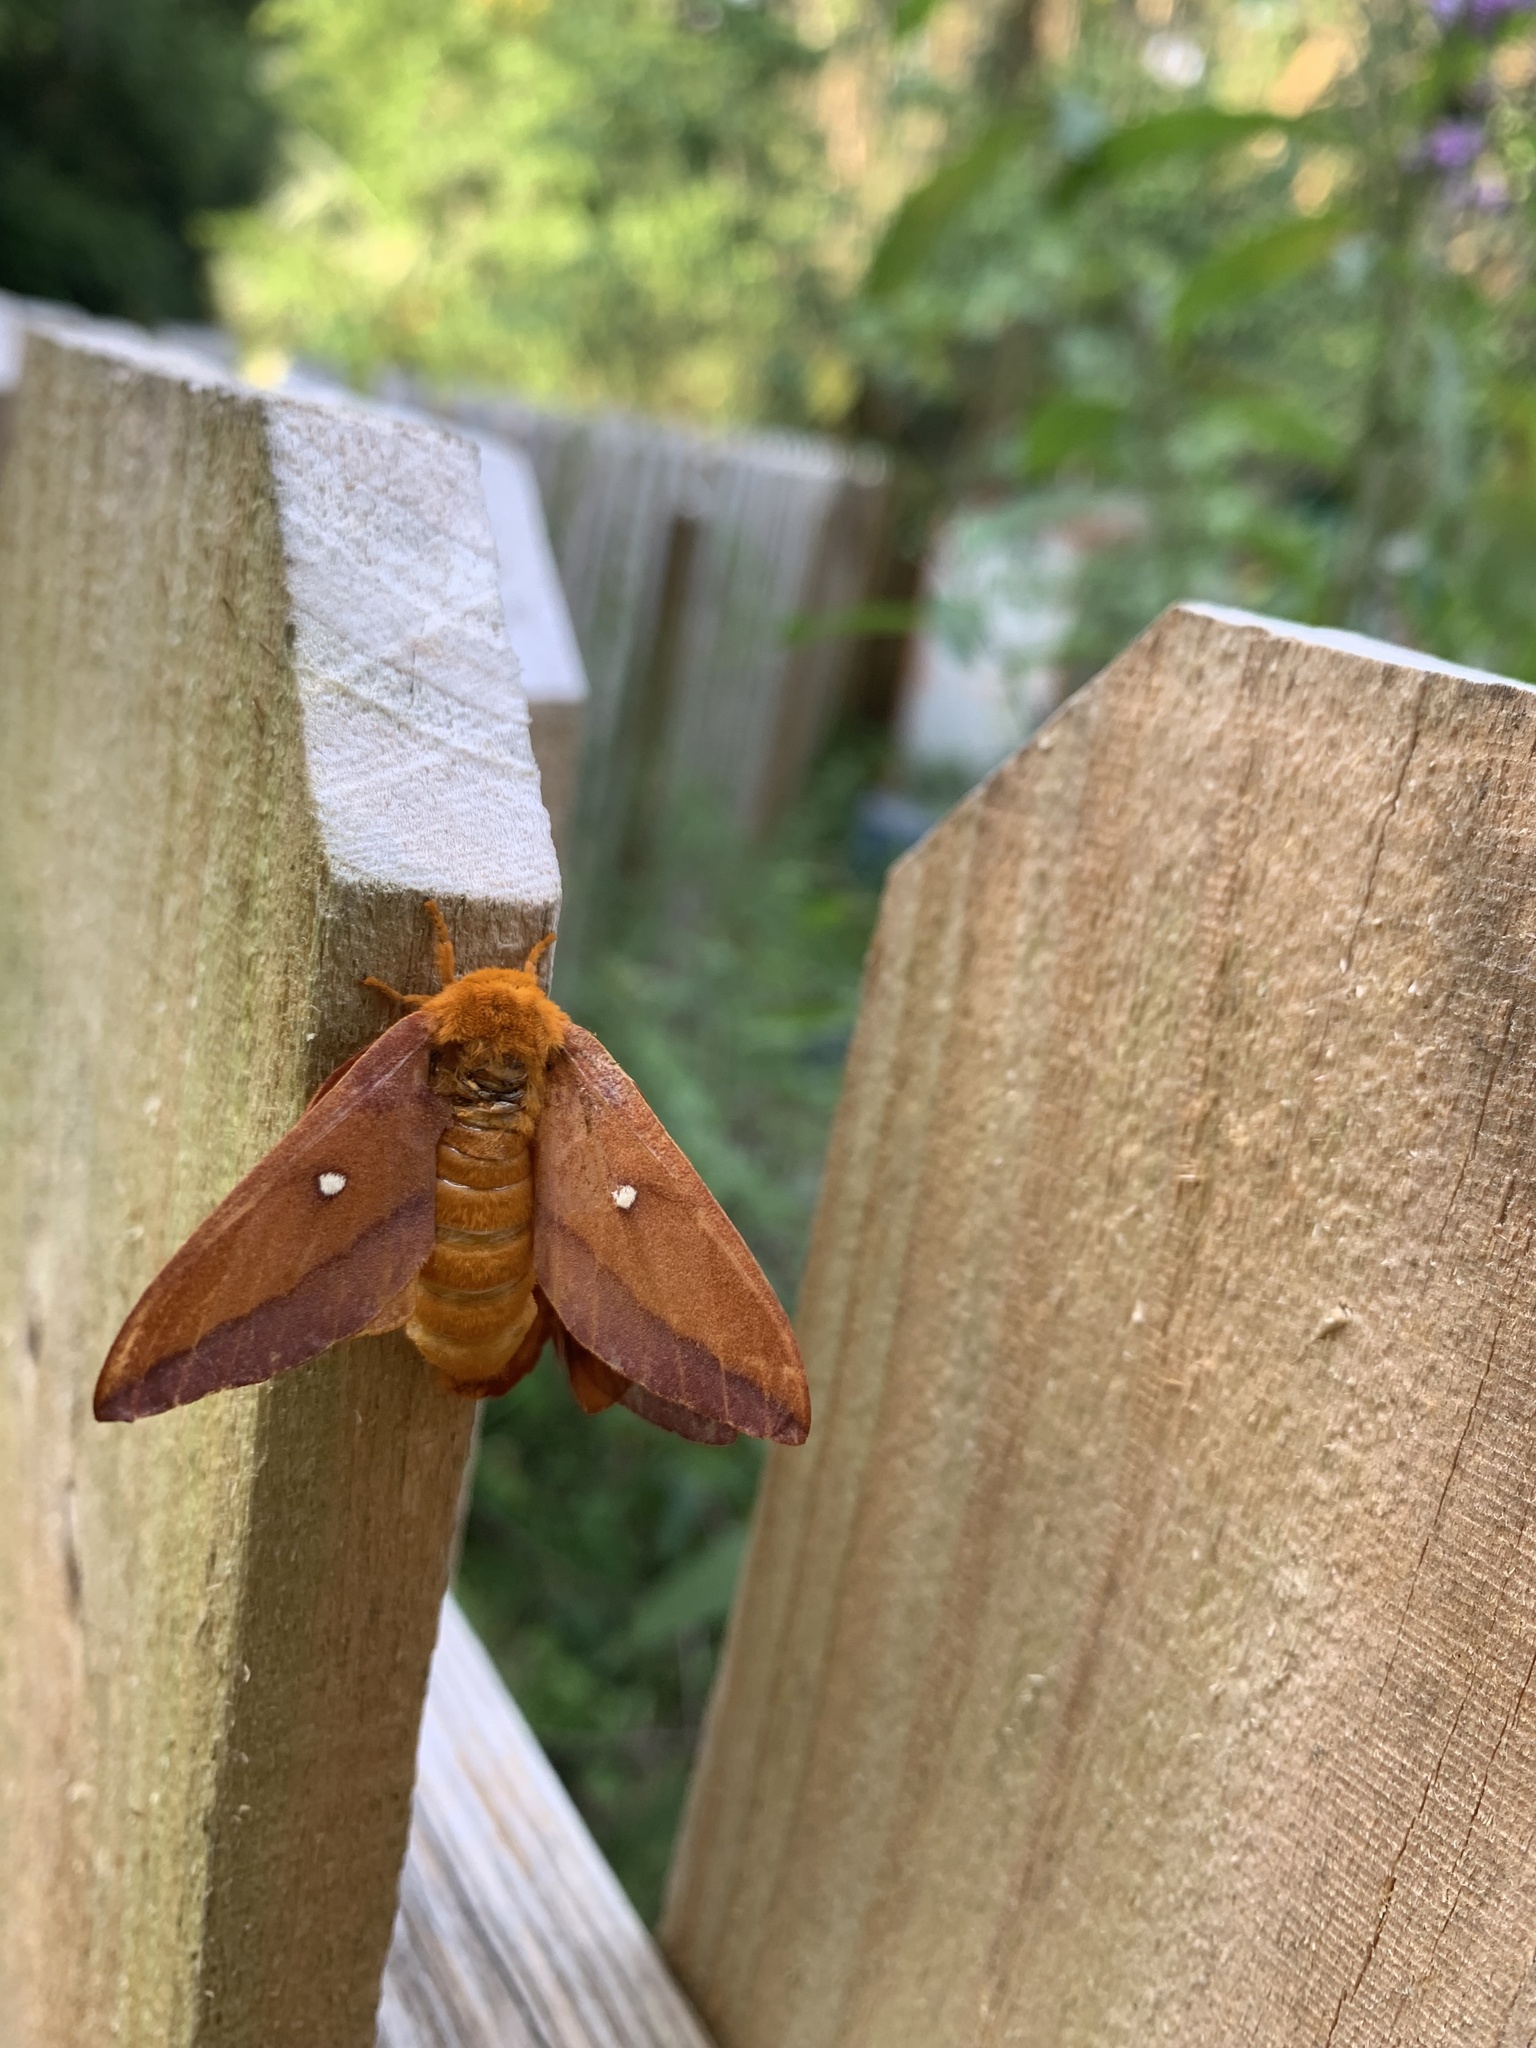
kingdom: Animalia
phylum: Arthropoda
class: Insecta
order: Lepidoptera
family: Saturniidae
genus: Anisota
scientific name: Anisota virginiensis
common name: Pink striped oakworm moth
